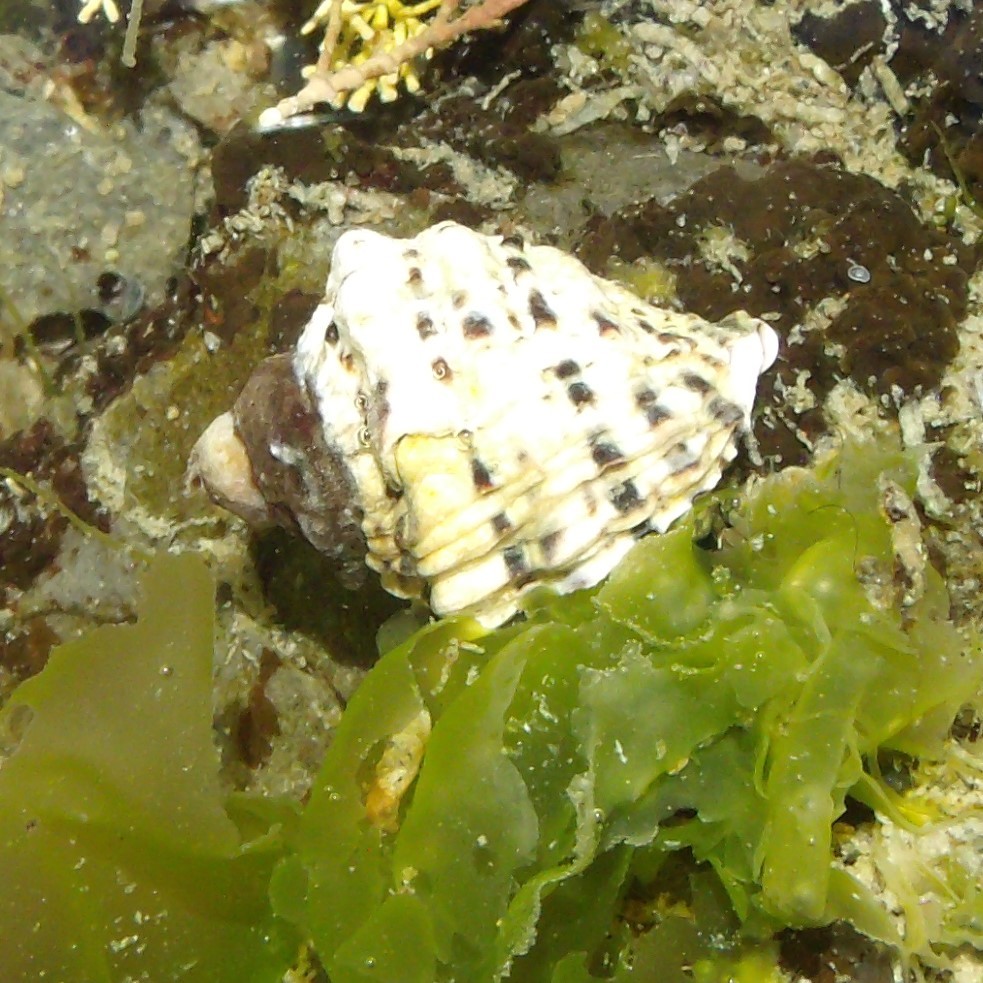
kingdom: Animalia
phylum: Mollusca
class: Gastropoda
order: Neogastropoda
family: Muricidae
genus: Haustrum
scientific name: Haustrum scobina
